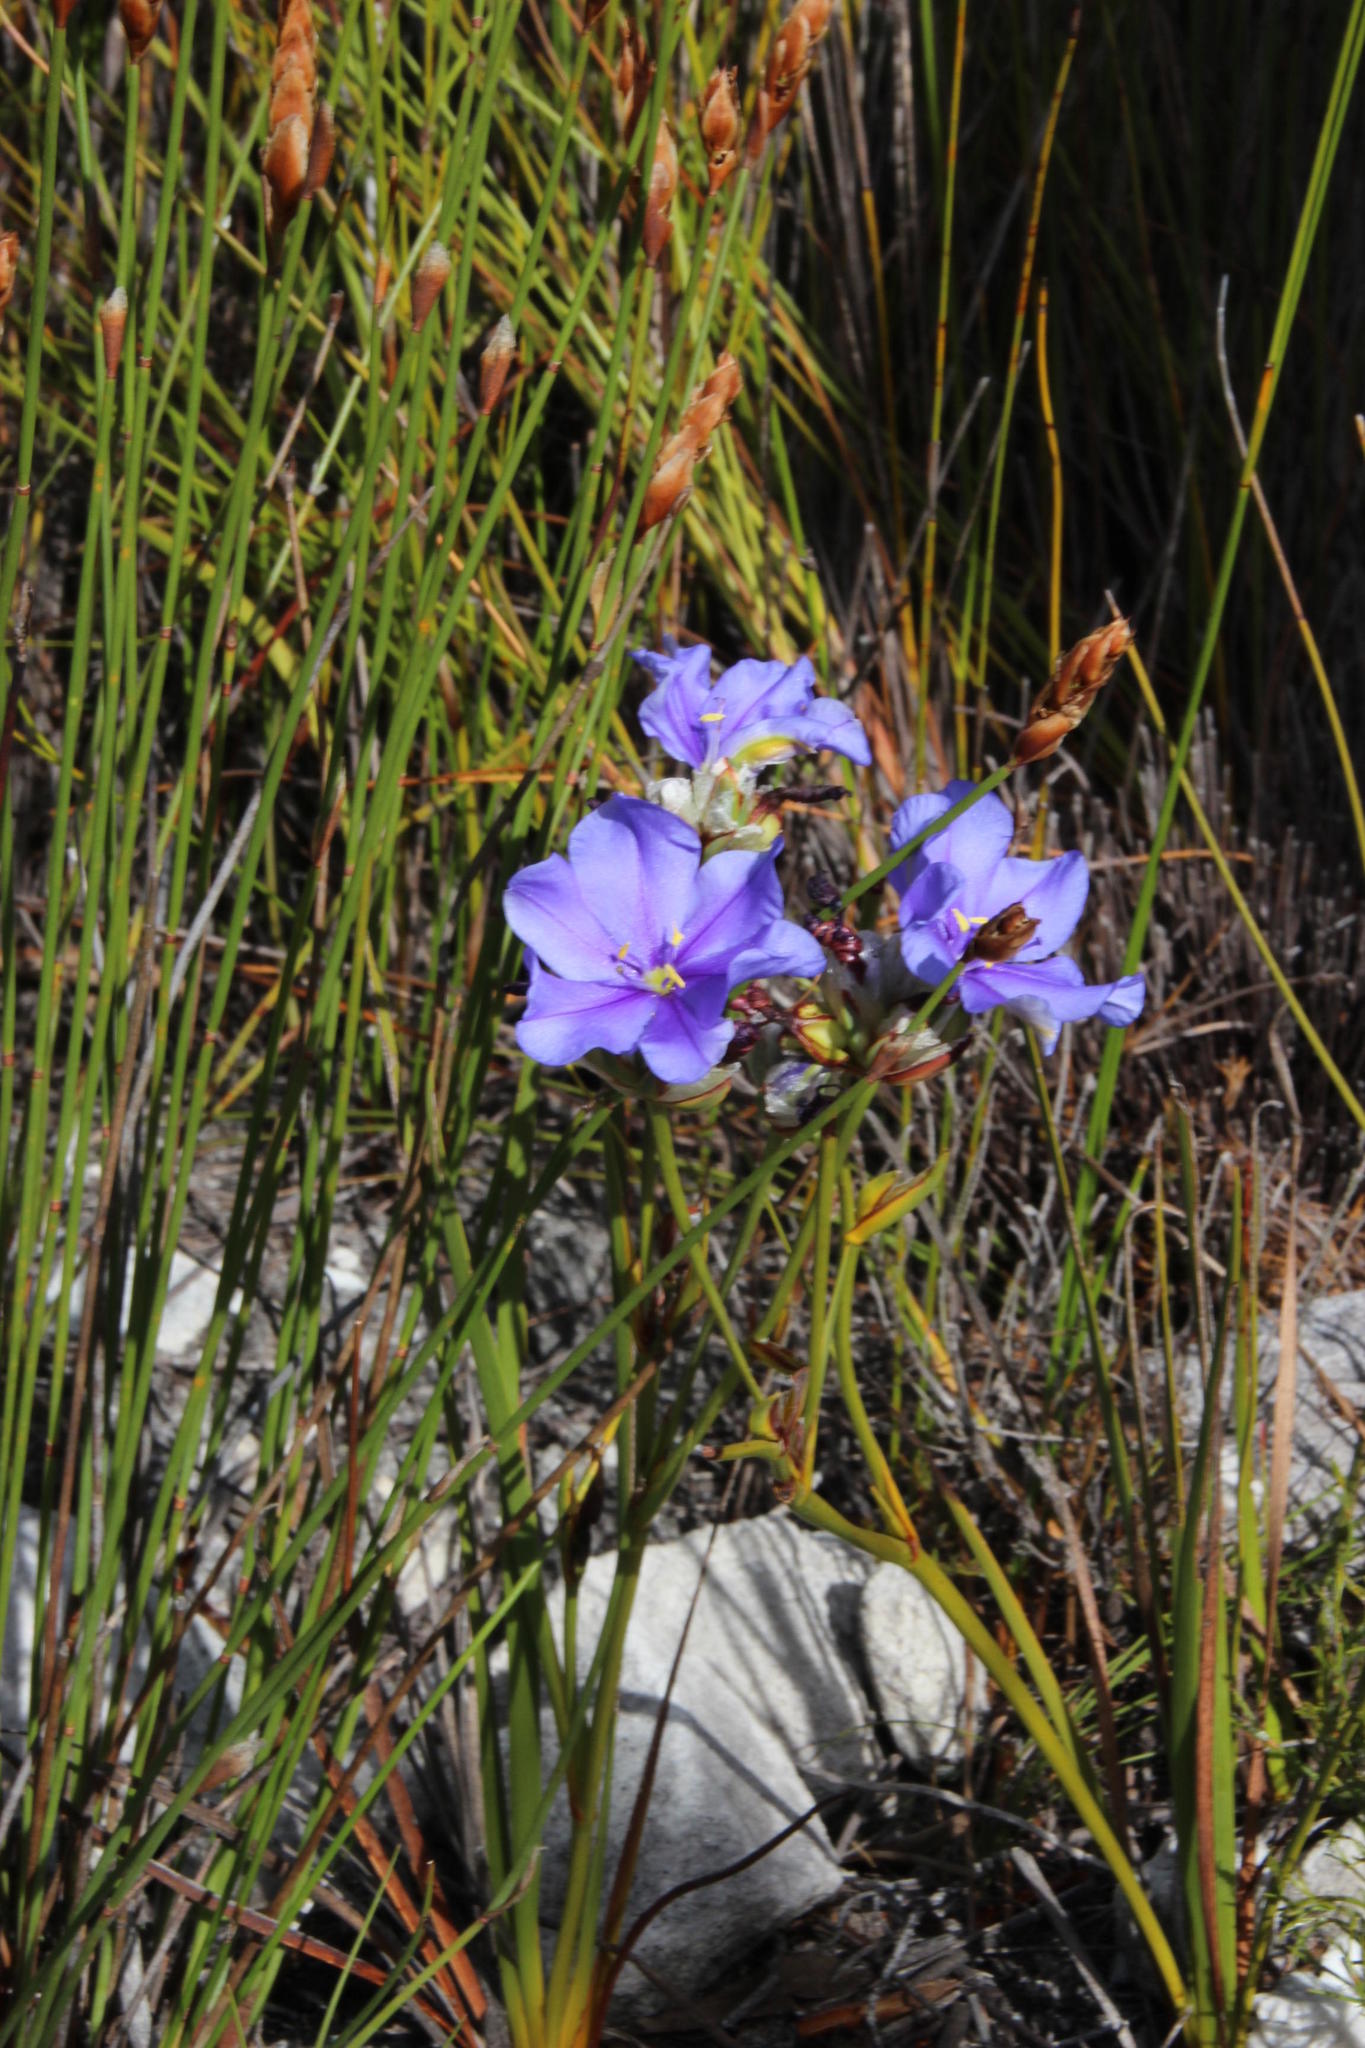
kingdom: Plantae
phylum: Tracheophyta
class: Liliopsida
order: Asparagales
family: Iridaceae
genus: Aristea
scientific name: Aristea dichotoma
